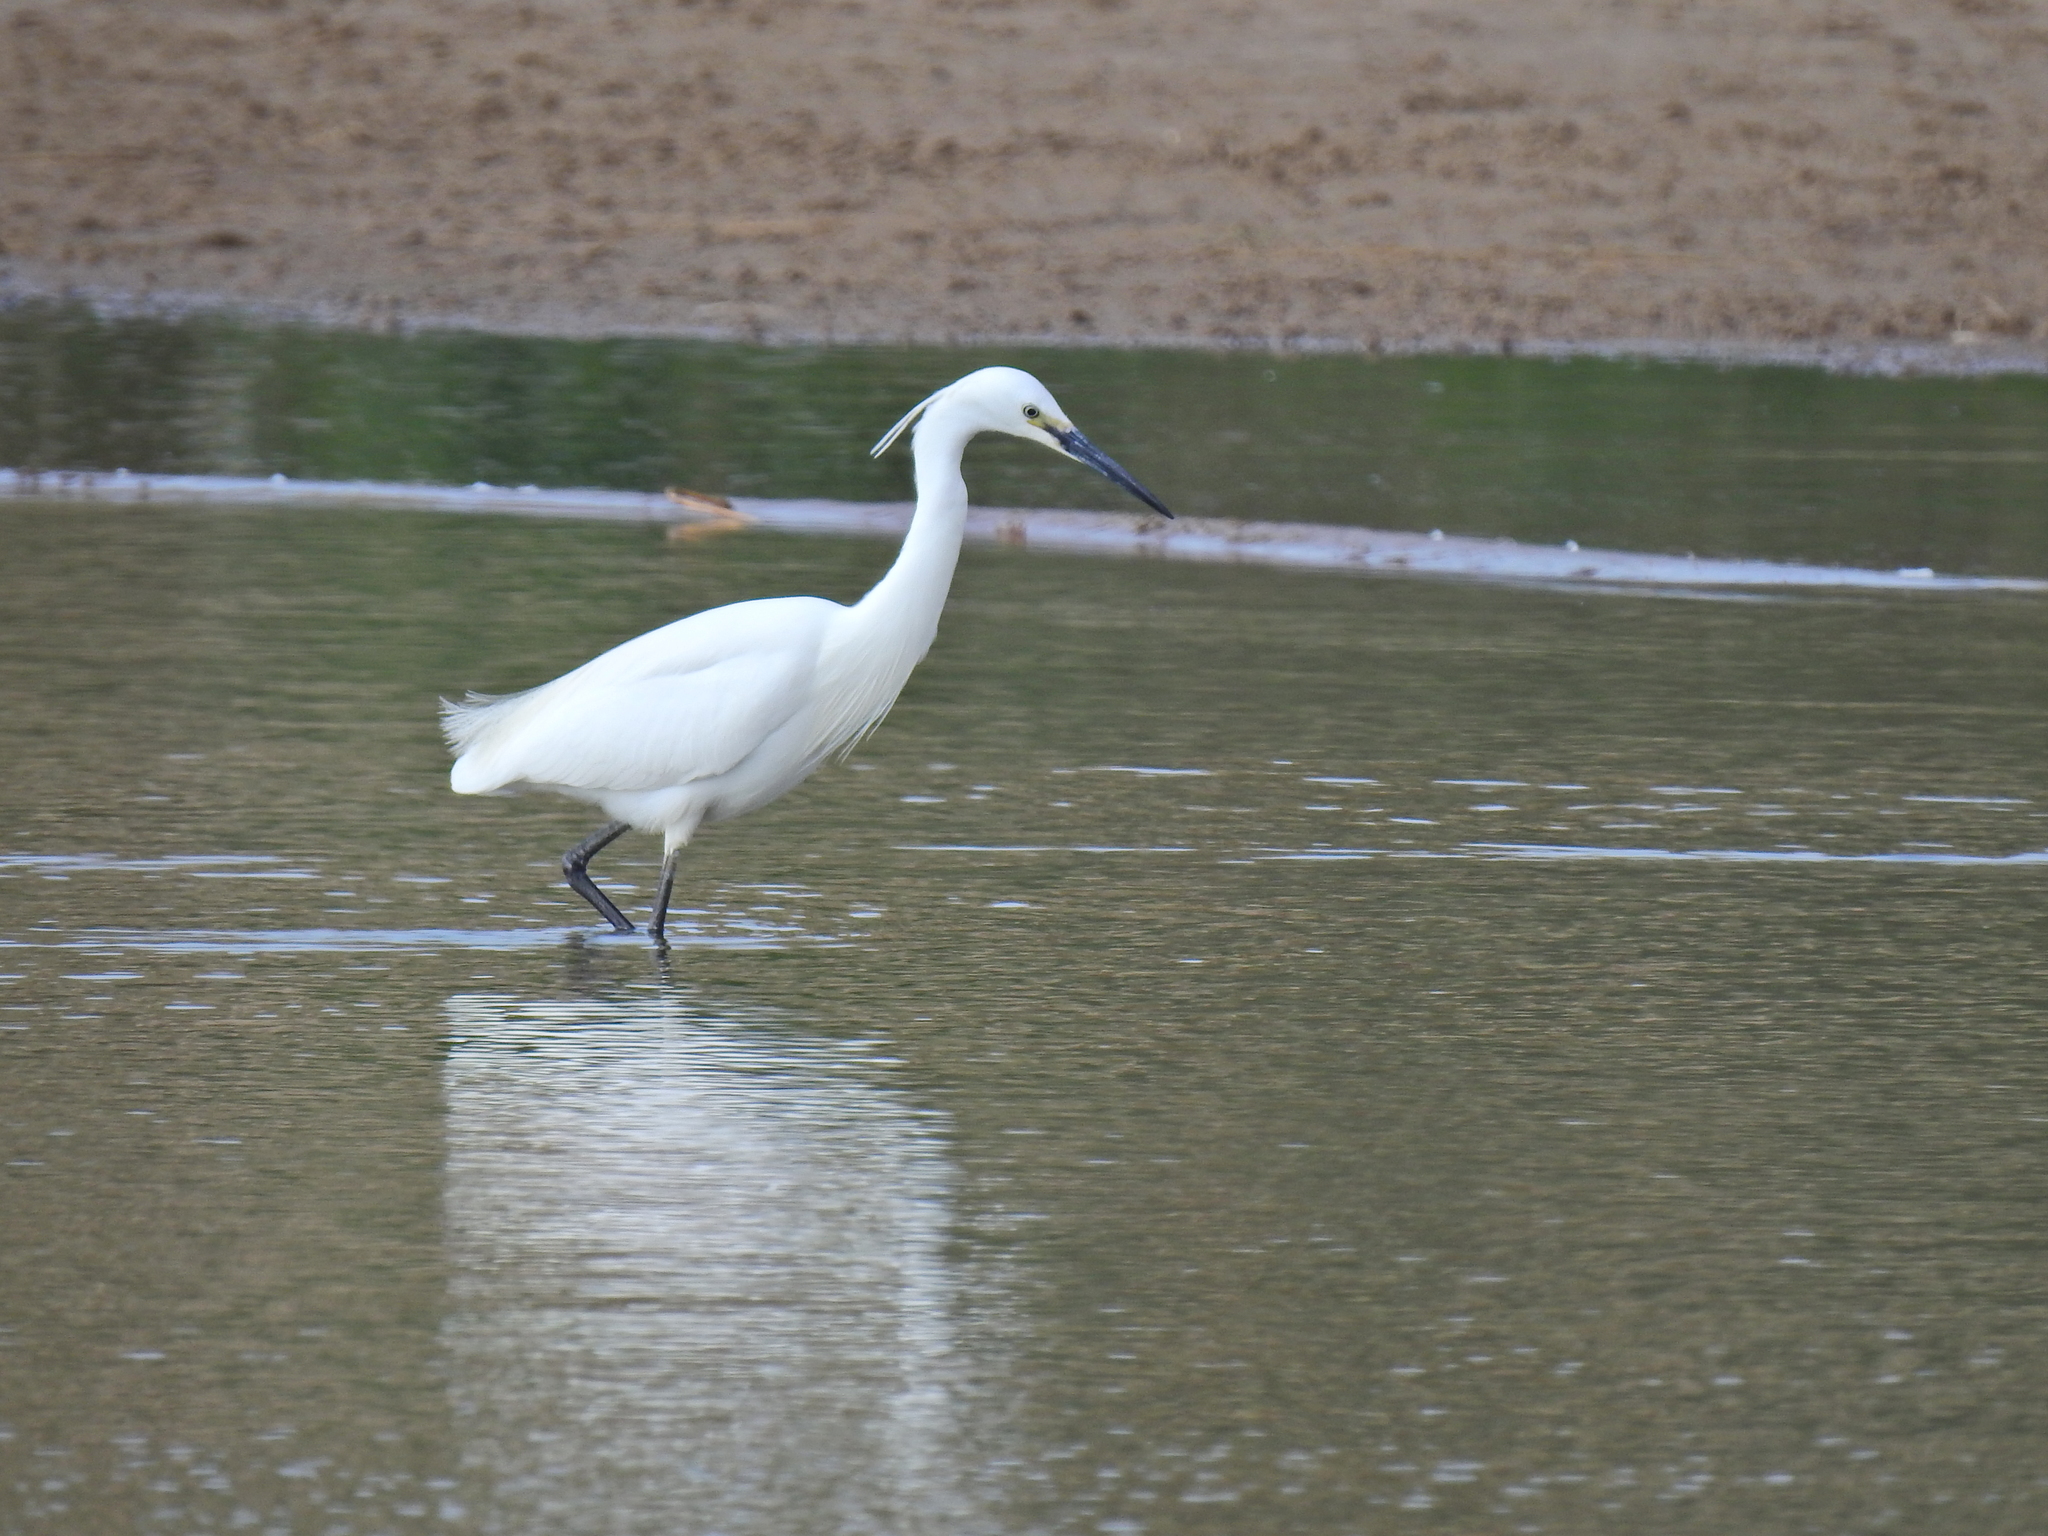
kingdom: Animalia
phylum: Chordata
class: Aves
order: Pelecaniformes
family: Ardeidae
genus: Egretta
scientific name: Egretta garzetta
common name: Little egret
